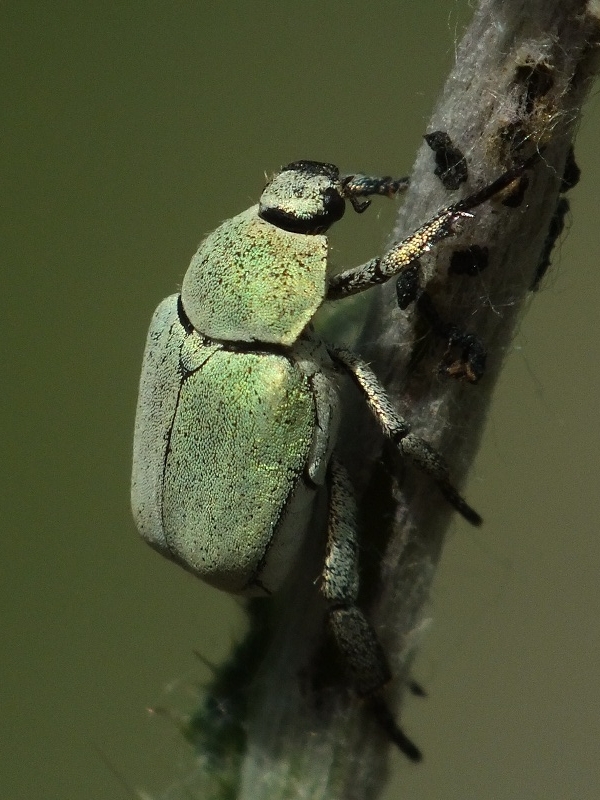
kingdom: Animalia
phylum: Arthropoda
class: Insecta
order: Coleoptera
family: Scarabaeidae
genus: Hoplia
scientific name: Hoplia parvula
